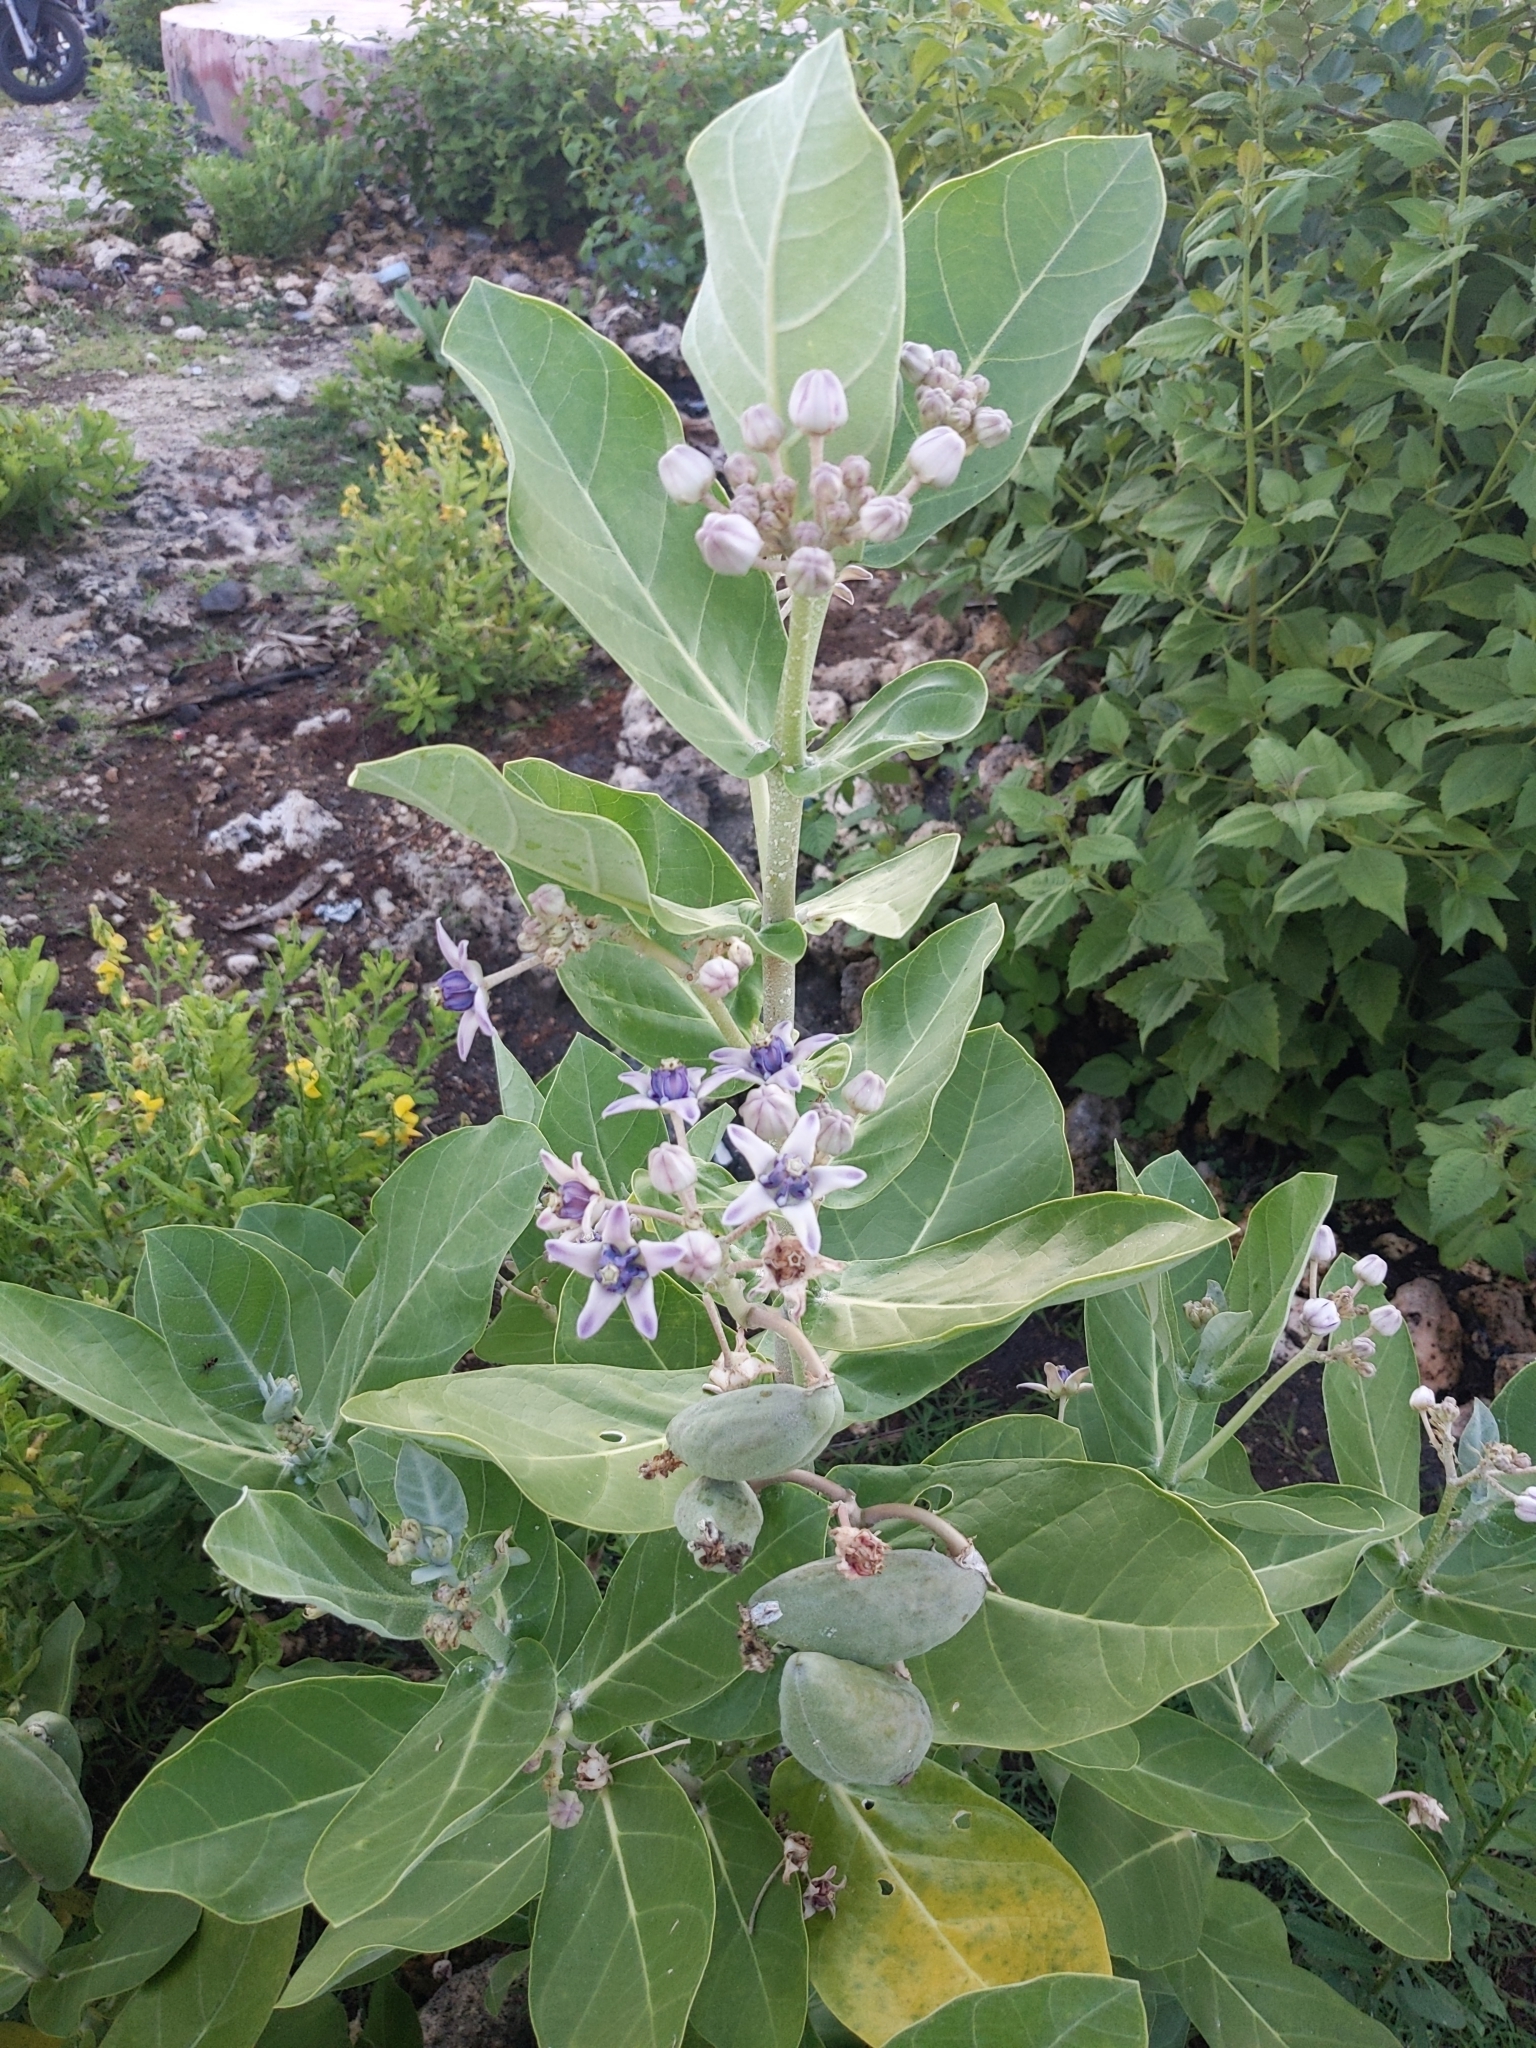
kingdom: Plantae
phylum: Tracheophyta
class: Magnoliopsida
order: Gentianales
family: Apocynaceae
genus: Calotropis
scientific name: Calotropis gigantea
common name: Crown flower
